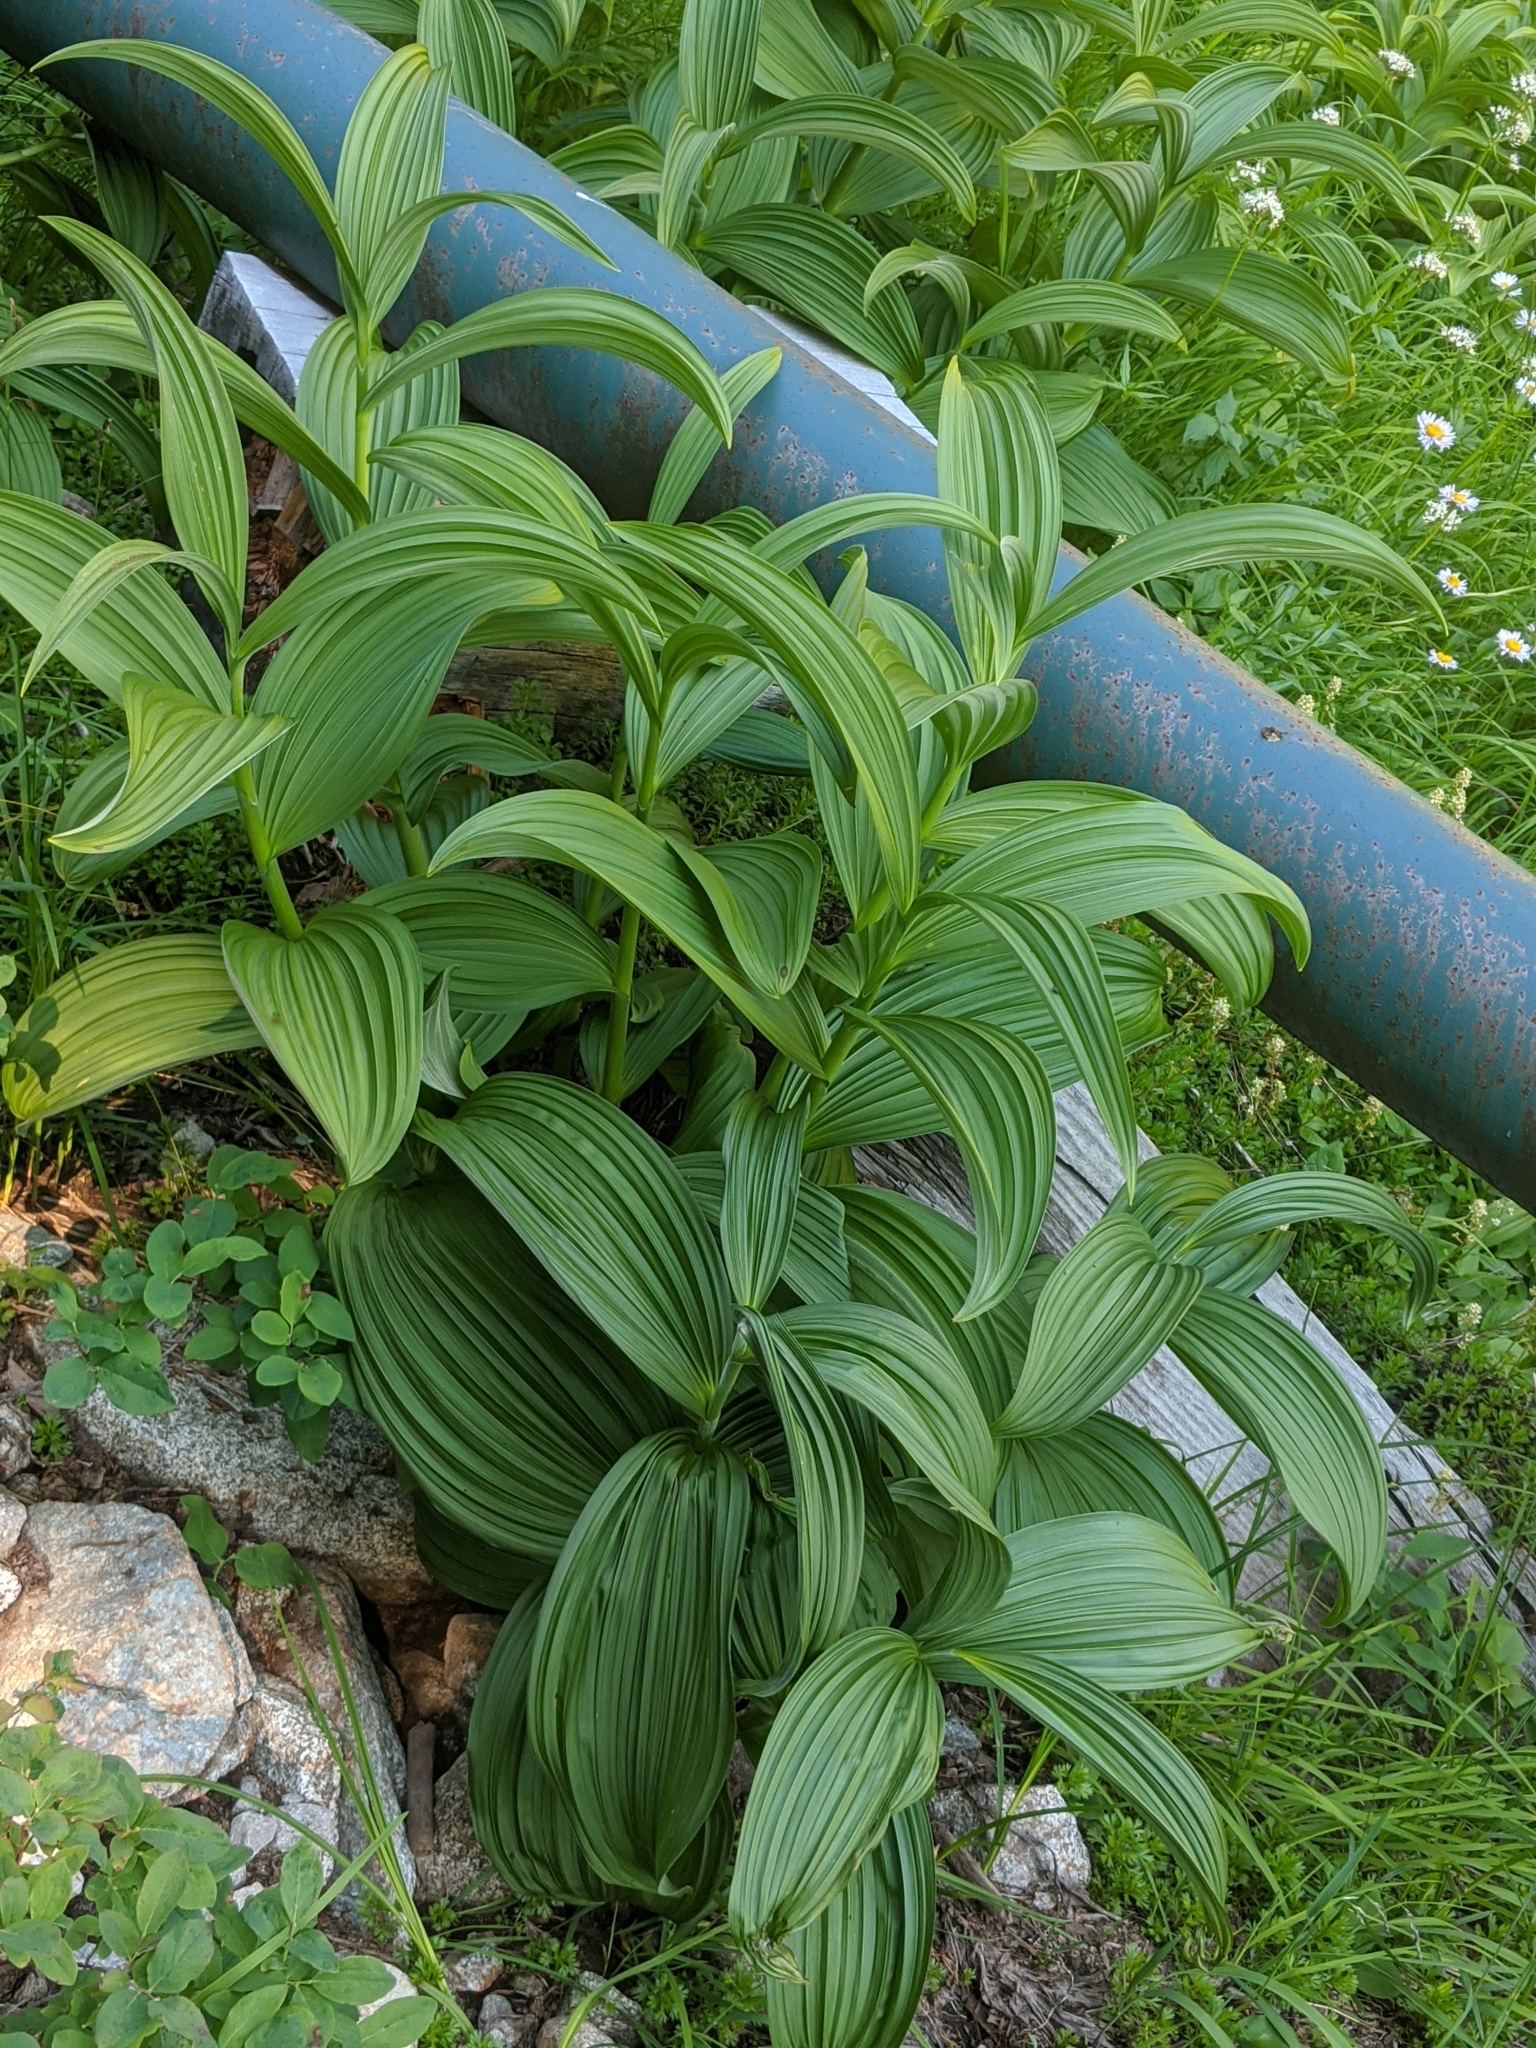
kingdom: Plantae
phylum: Tracheophyta
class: Liliopsida
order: Liliales
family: Melanthiaceae
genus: Veratrum
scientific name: Veratrum viride
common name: American false hellebore
